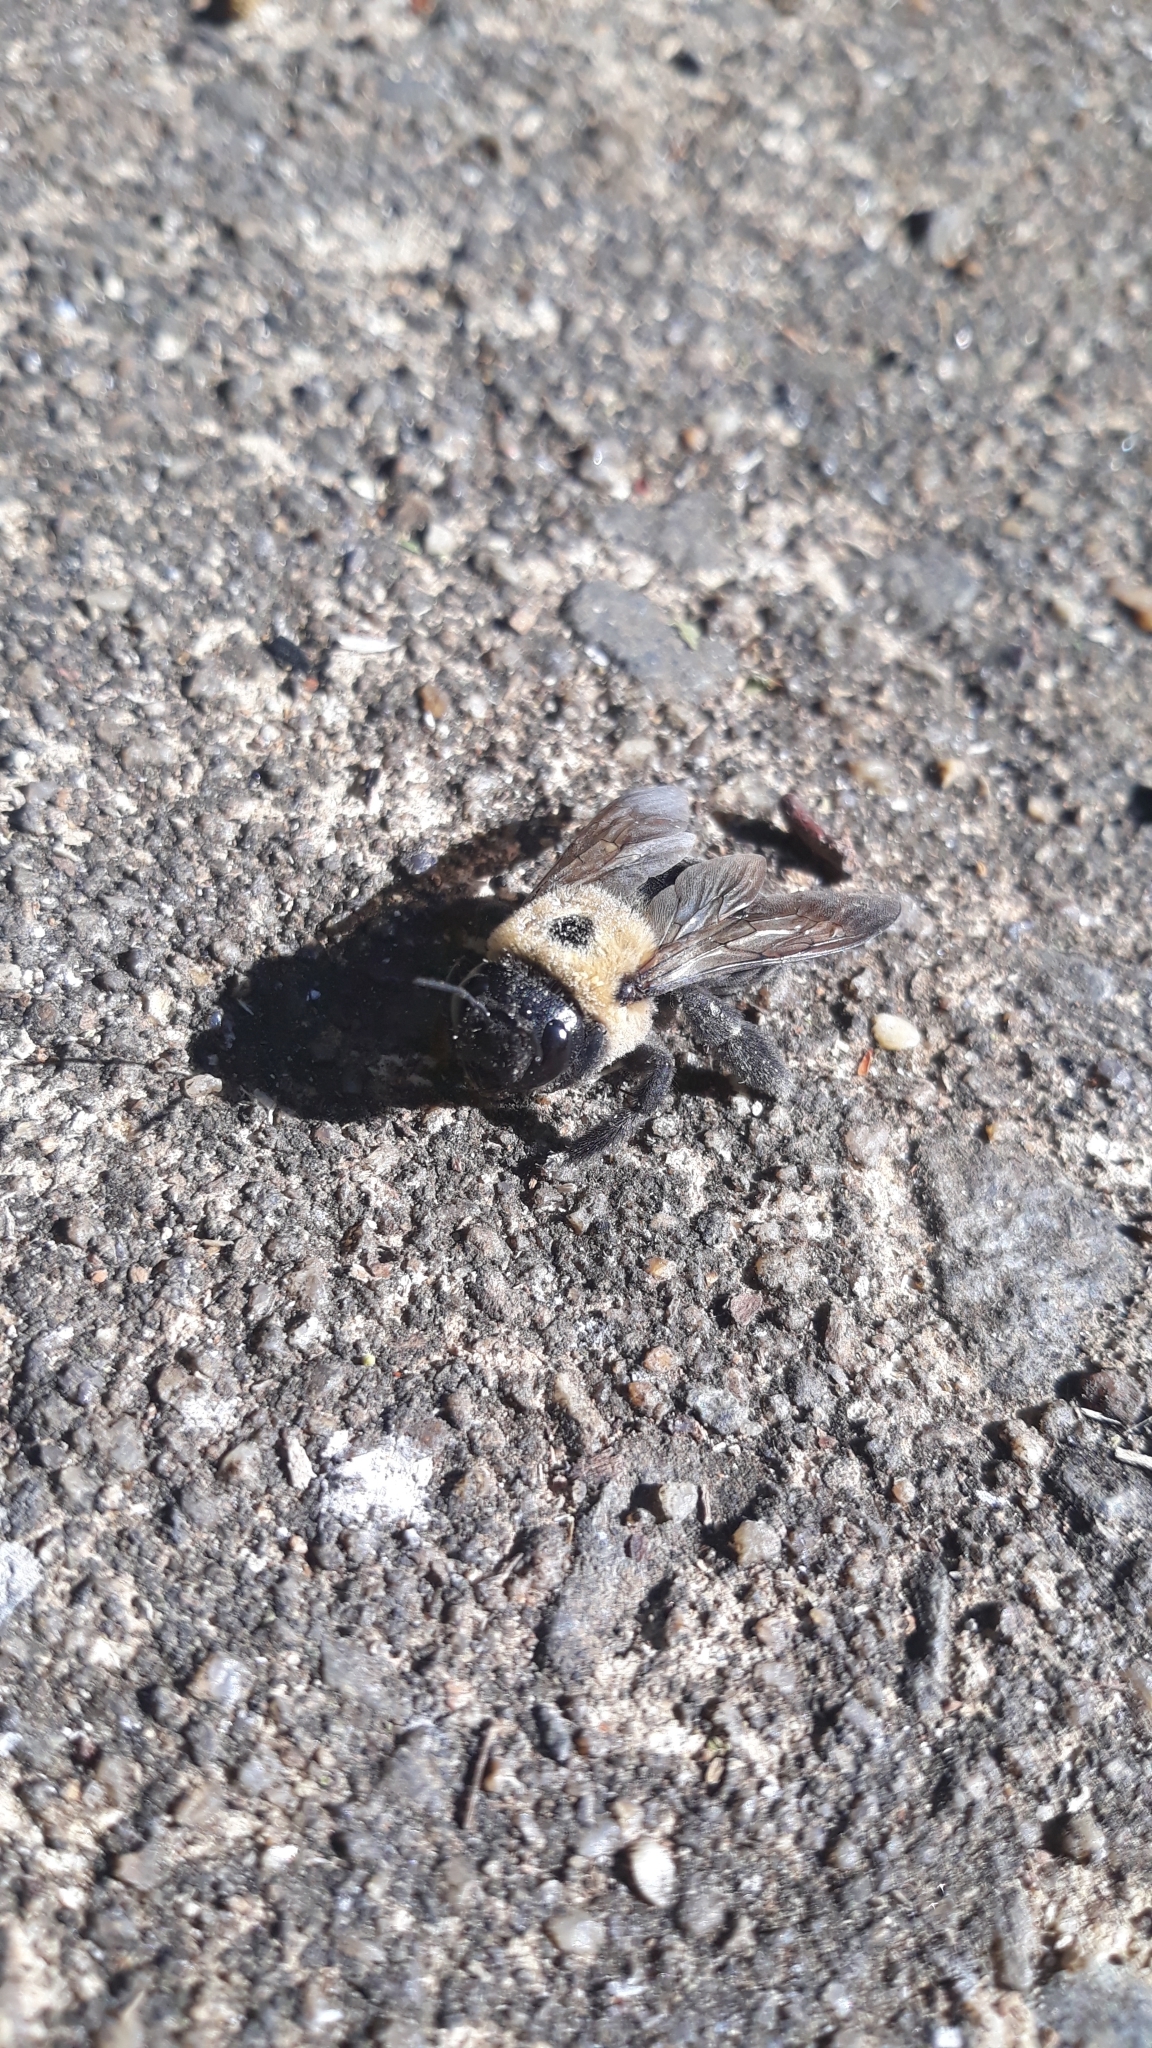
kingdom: Animalia
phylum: Arthropoda
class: Insecta
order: Hymenoptera
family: Apidae
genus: Xylocopa
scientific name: Xylocopa virginica
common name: Carpenter bee
